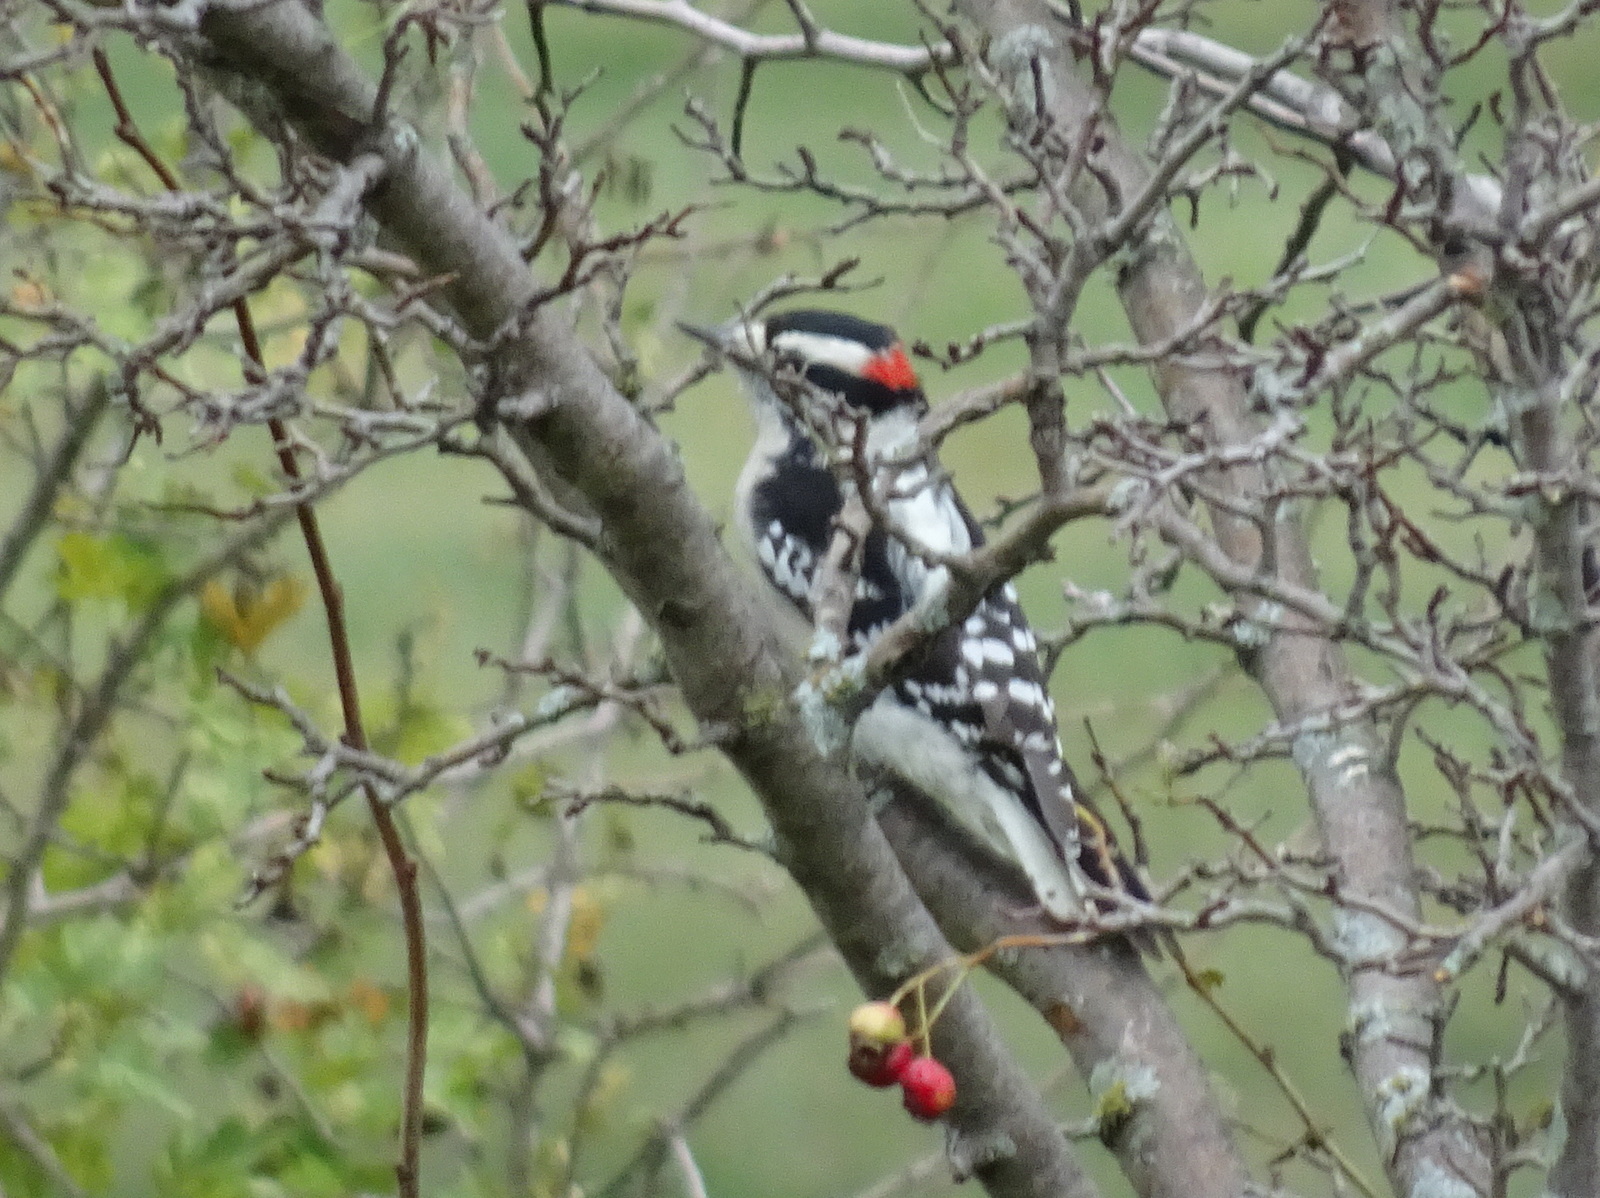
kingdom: Animalia
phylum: Chordata
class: Aves
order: Piciformes
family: Picidae
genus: Dryobates
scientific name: Dryobates pubescens
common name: Downy woodpecker
